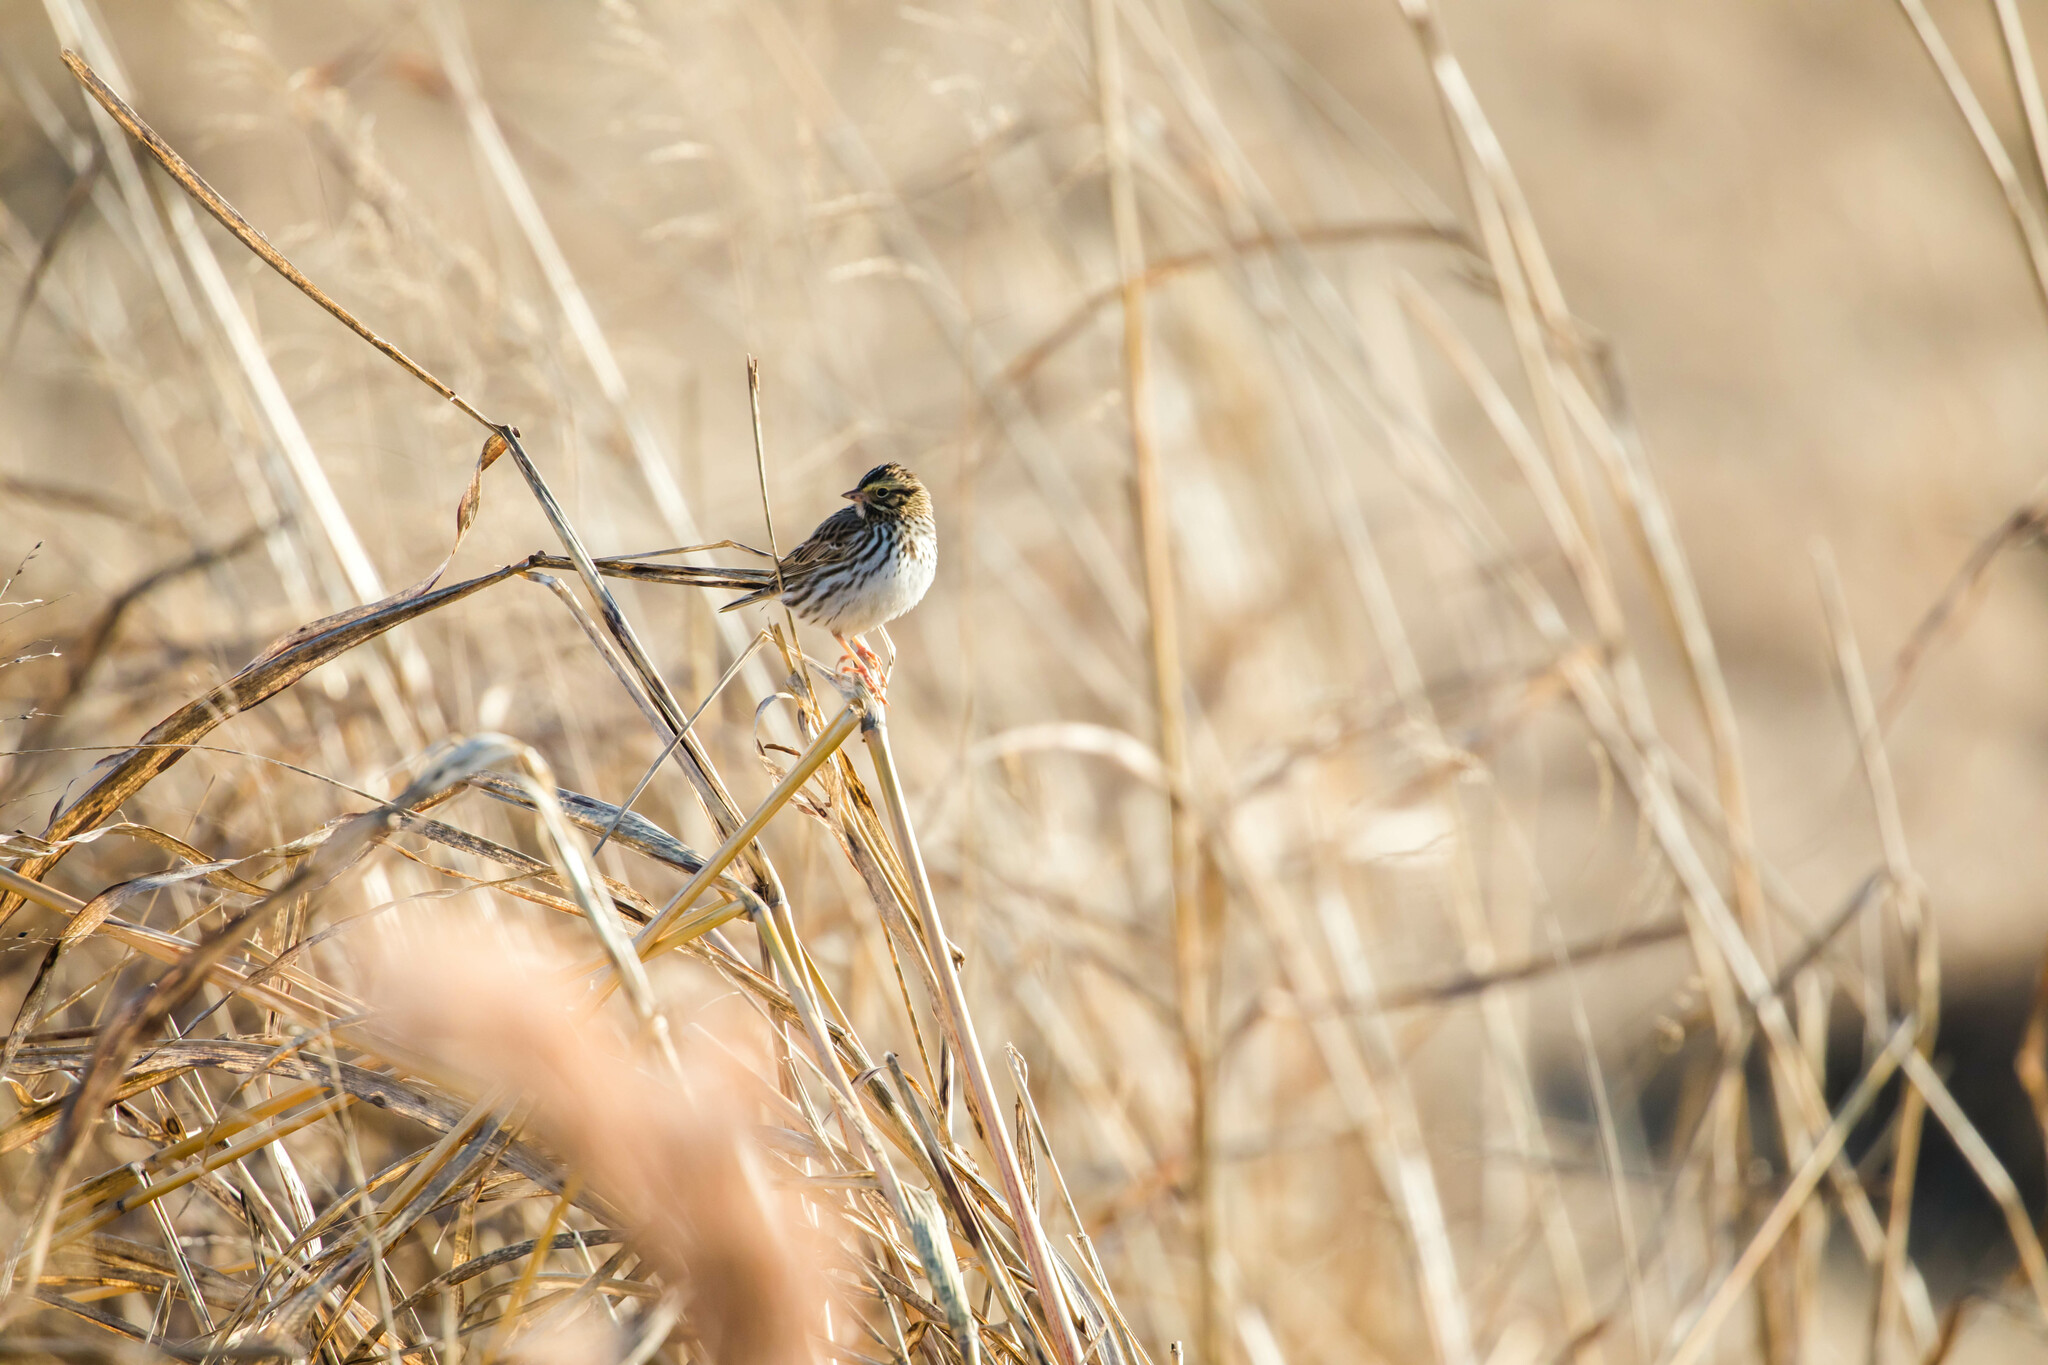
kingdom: Animalia
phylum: Chordata
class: Aves
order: Passeriformes
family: Passerellidae
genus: Passerculus
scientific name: Passerculus sandwichensis
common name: Savannah sparrow
